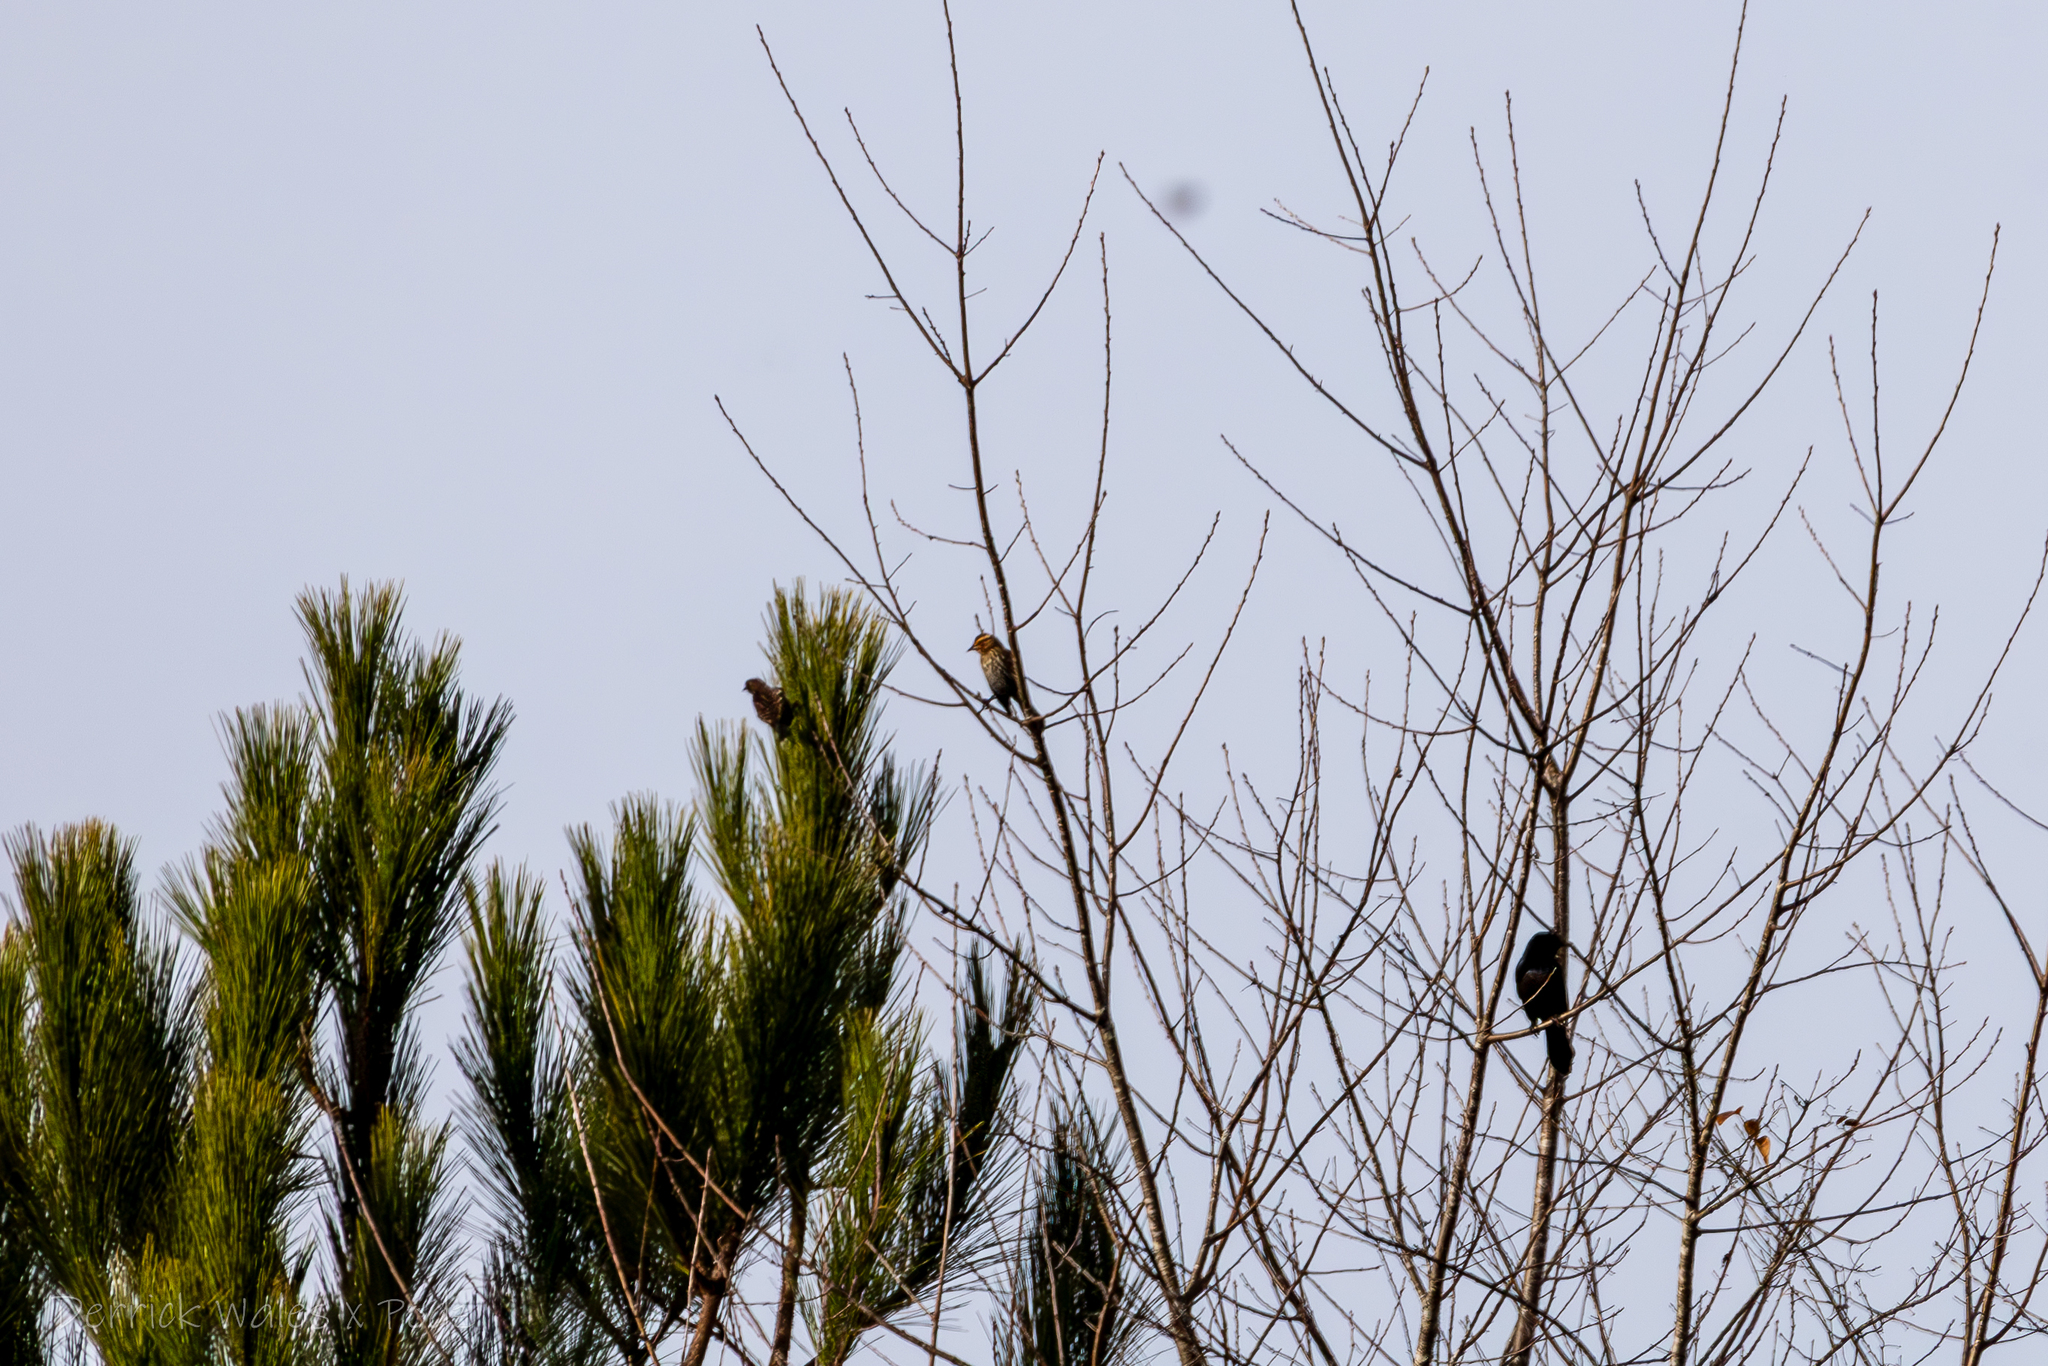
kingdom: Animalia
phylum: Chordata
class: Aves
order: Passeriformes
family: Icteridae
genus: Agelaius
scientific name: Agelaius phoeniceus
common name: Red-winged blackbird
